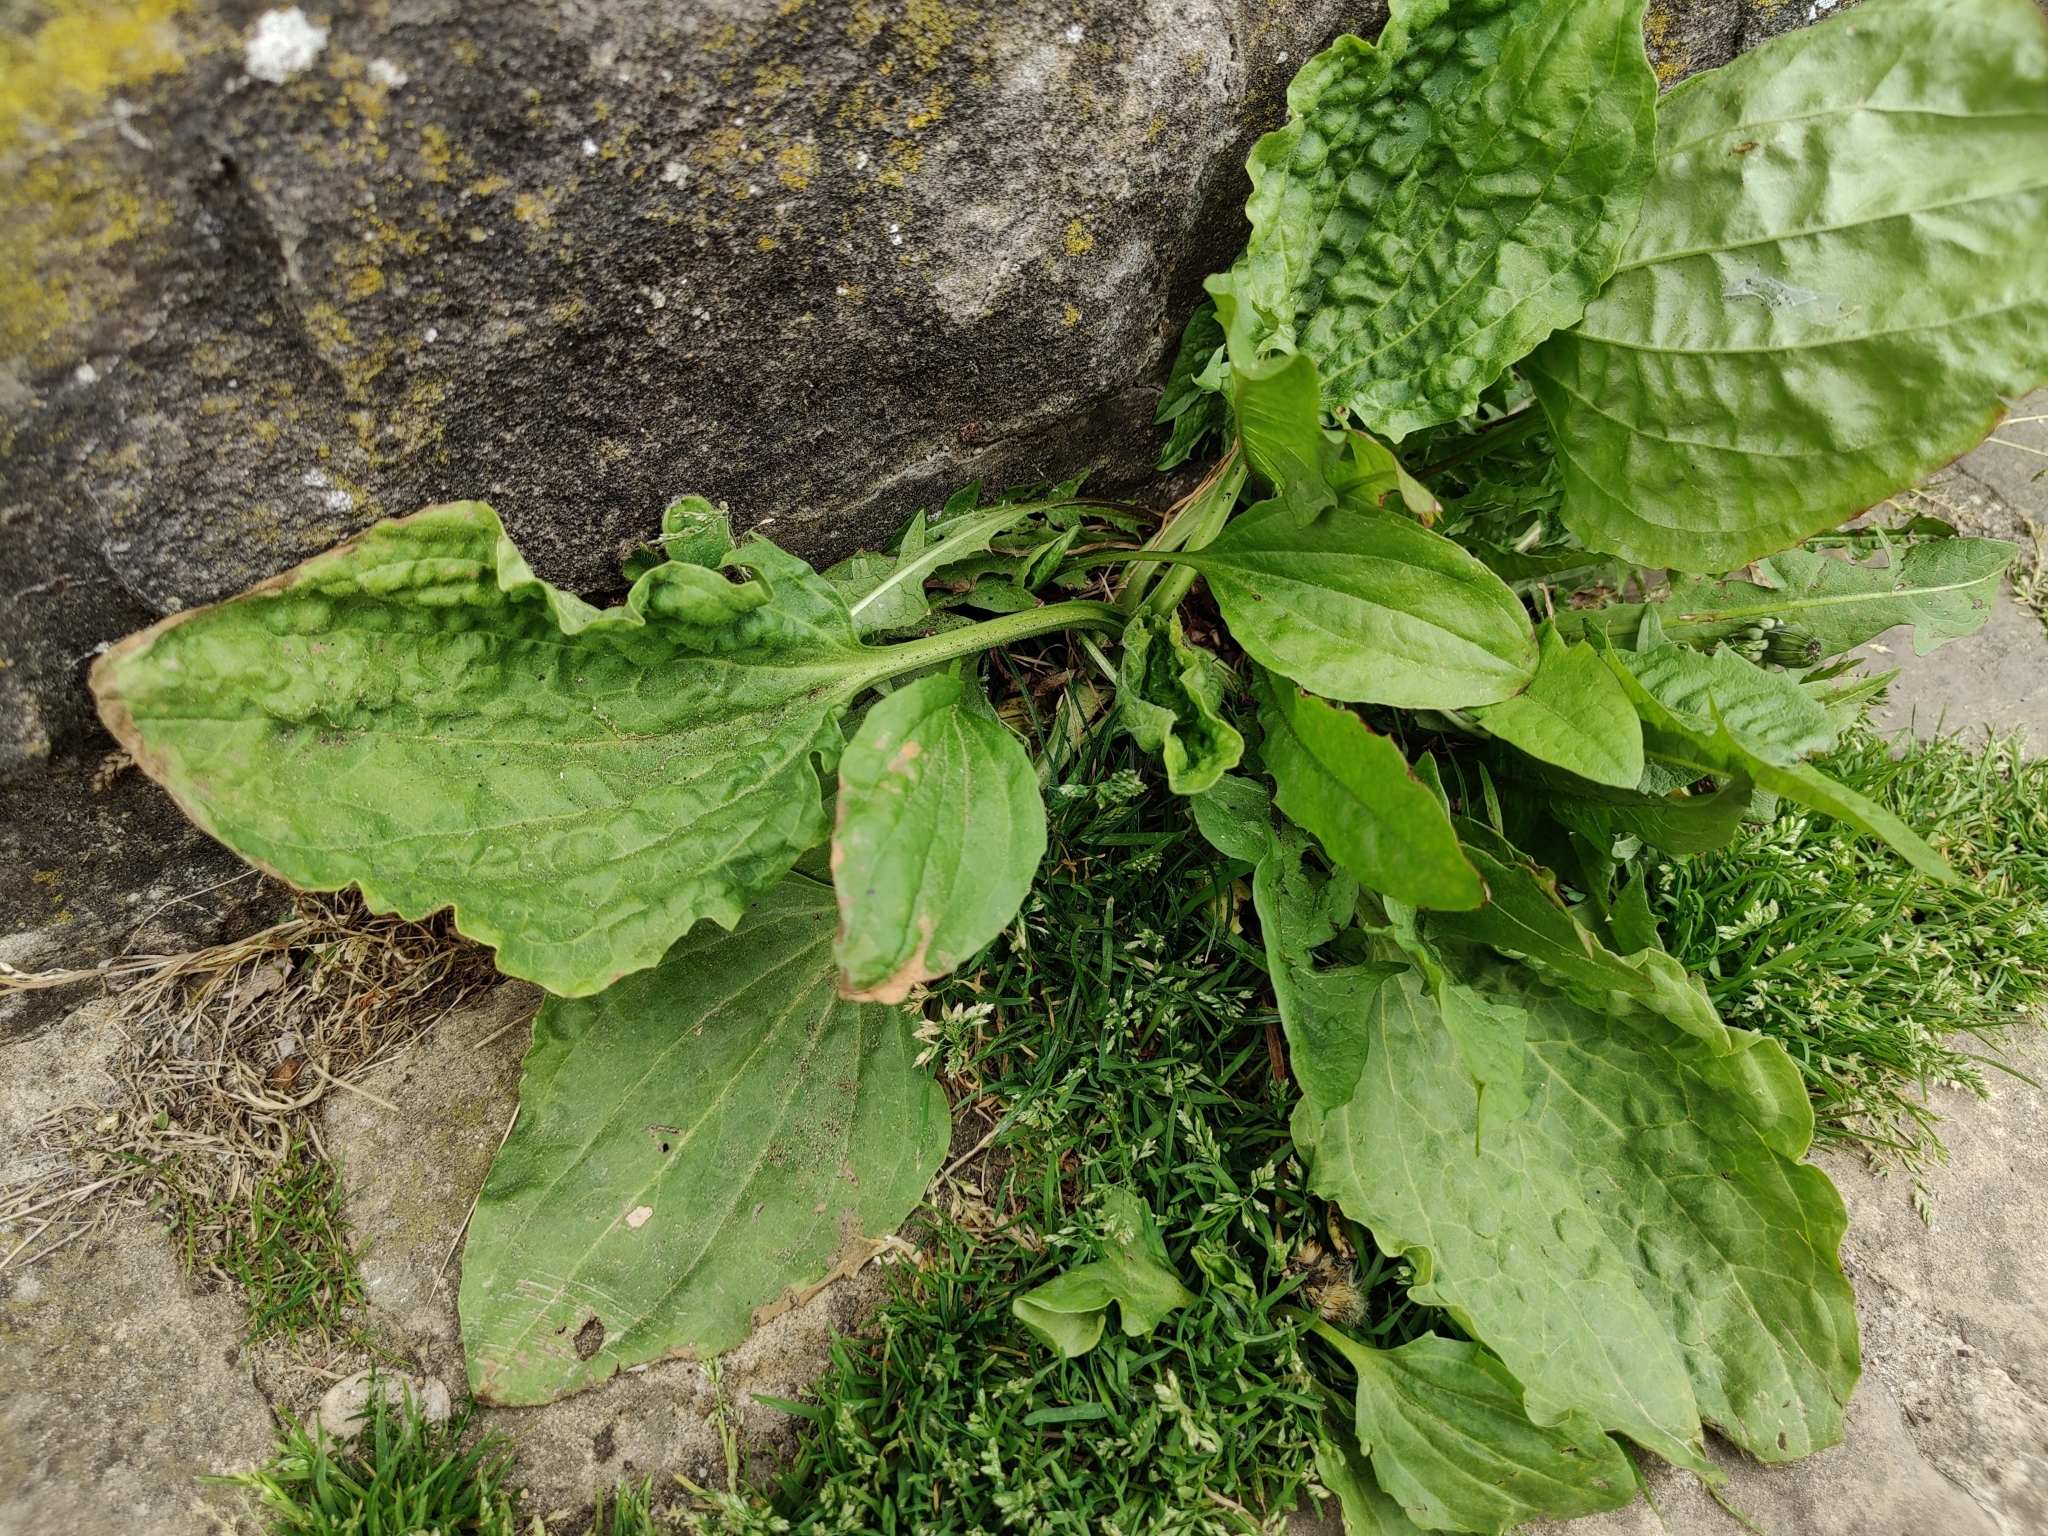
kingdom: Plantae
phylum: Tracheophyta
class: Magnoliopsida
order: Lamiales
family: Plantaginaceae
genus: Plantago
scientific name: Plantago major
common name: Common plantain
